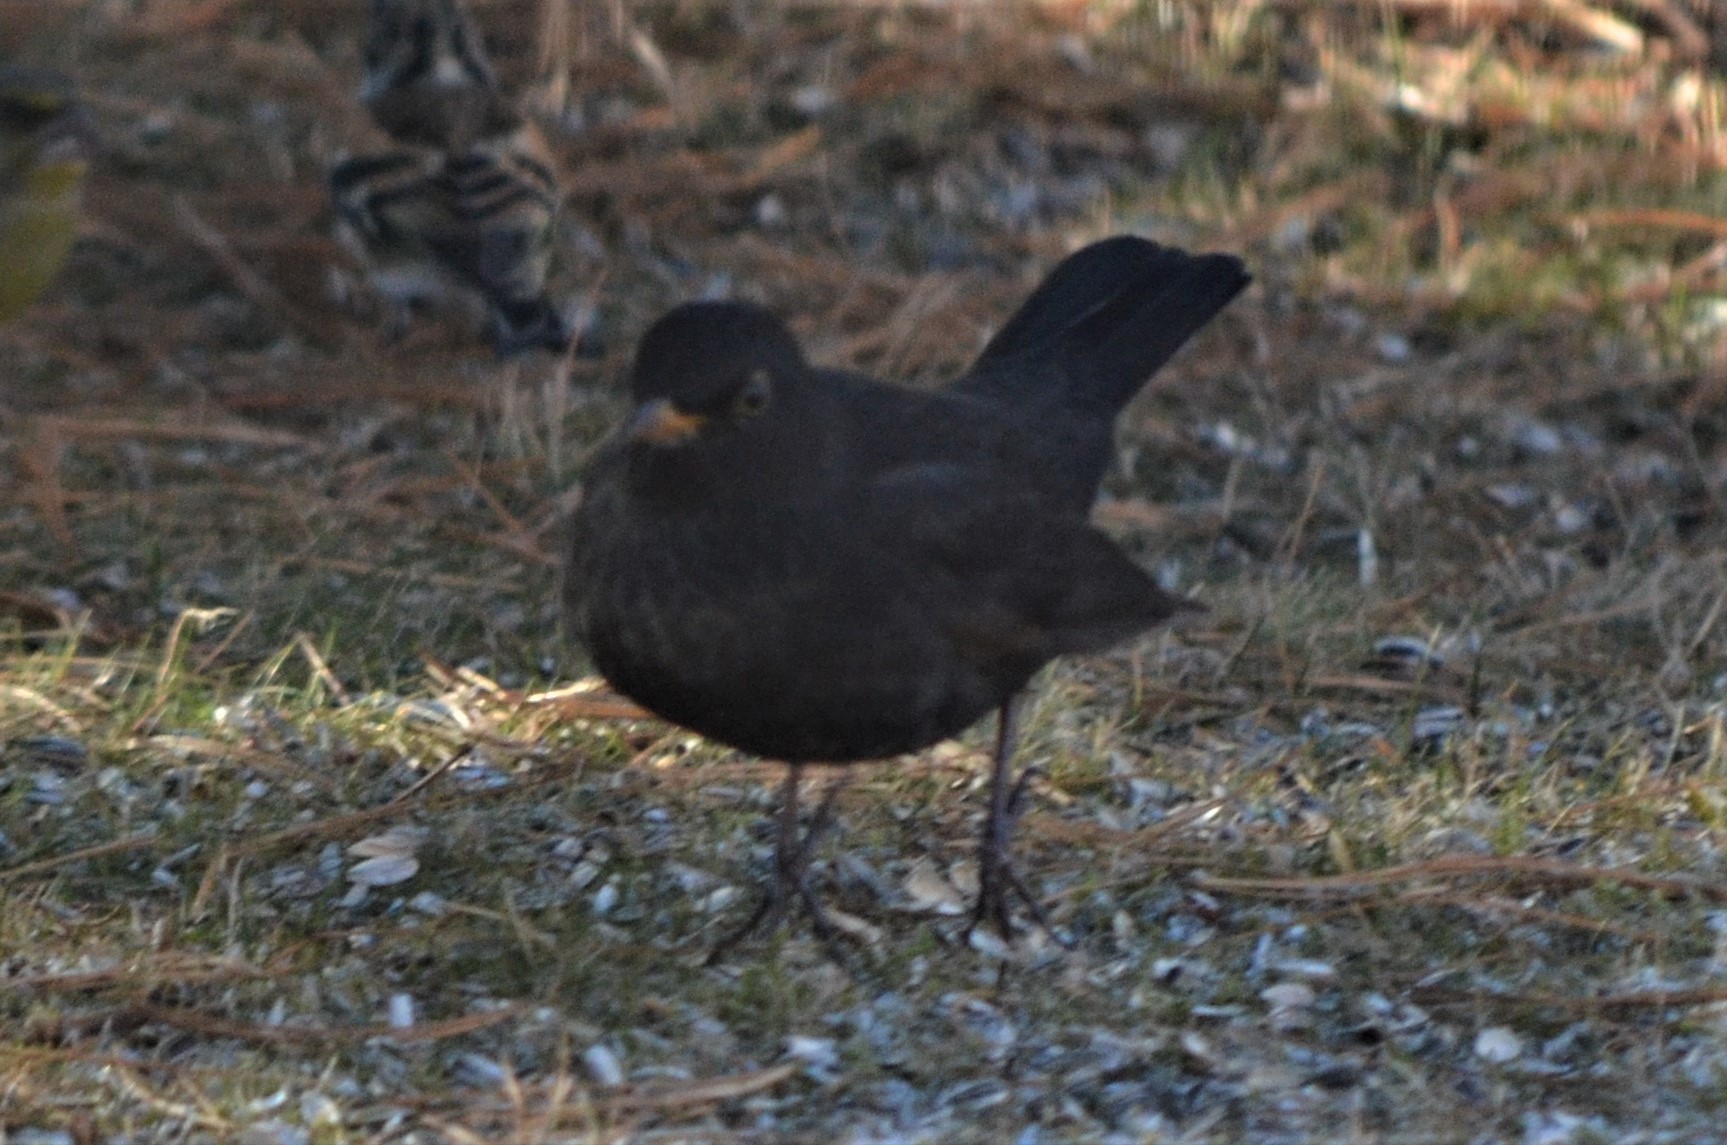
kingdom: Animalia
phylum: Chordata
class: Aves
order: Passeriformes
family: Turdidae
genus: Turdus
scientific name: Turdus merula
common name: Common blackbird
